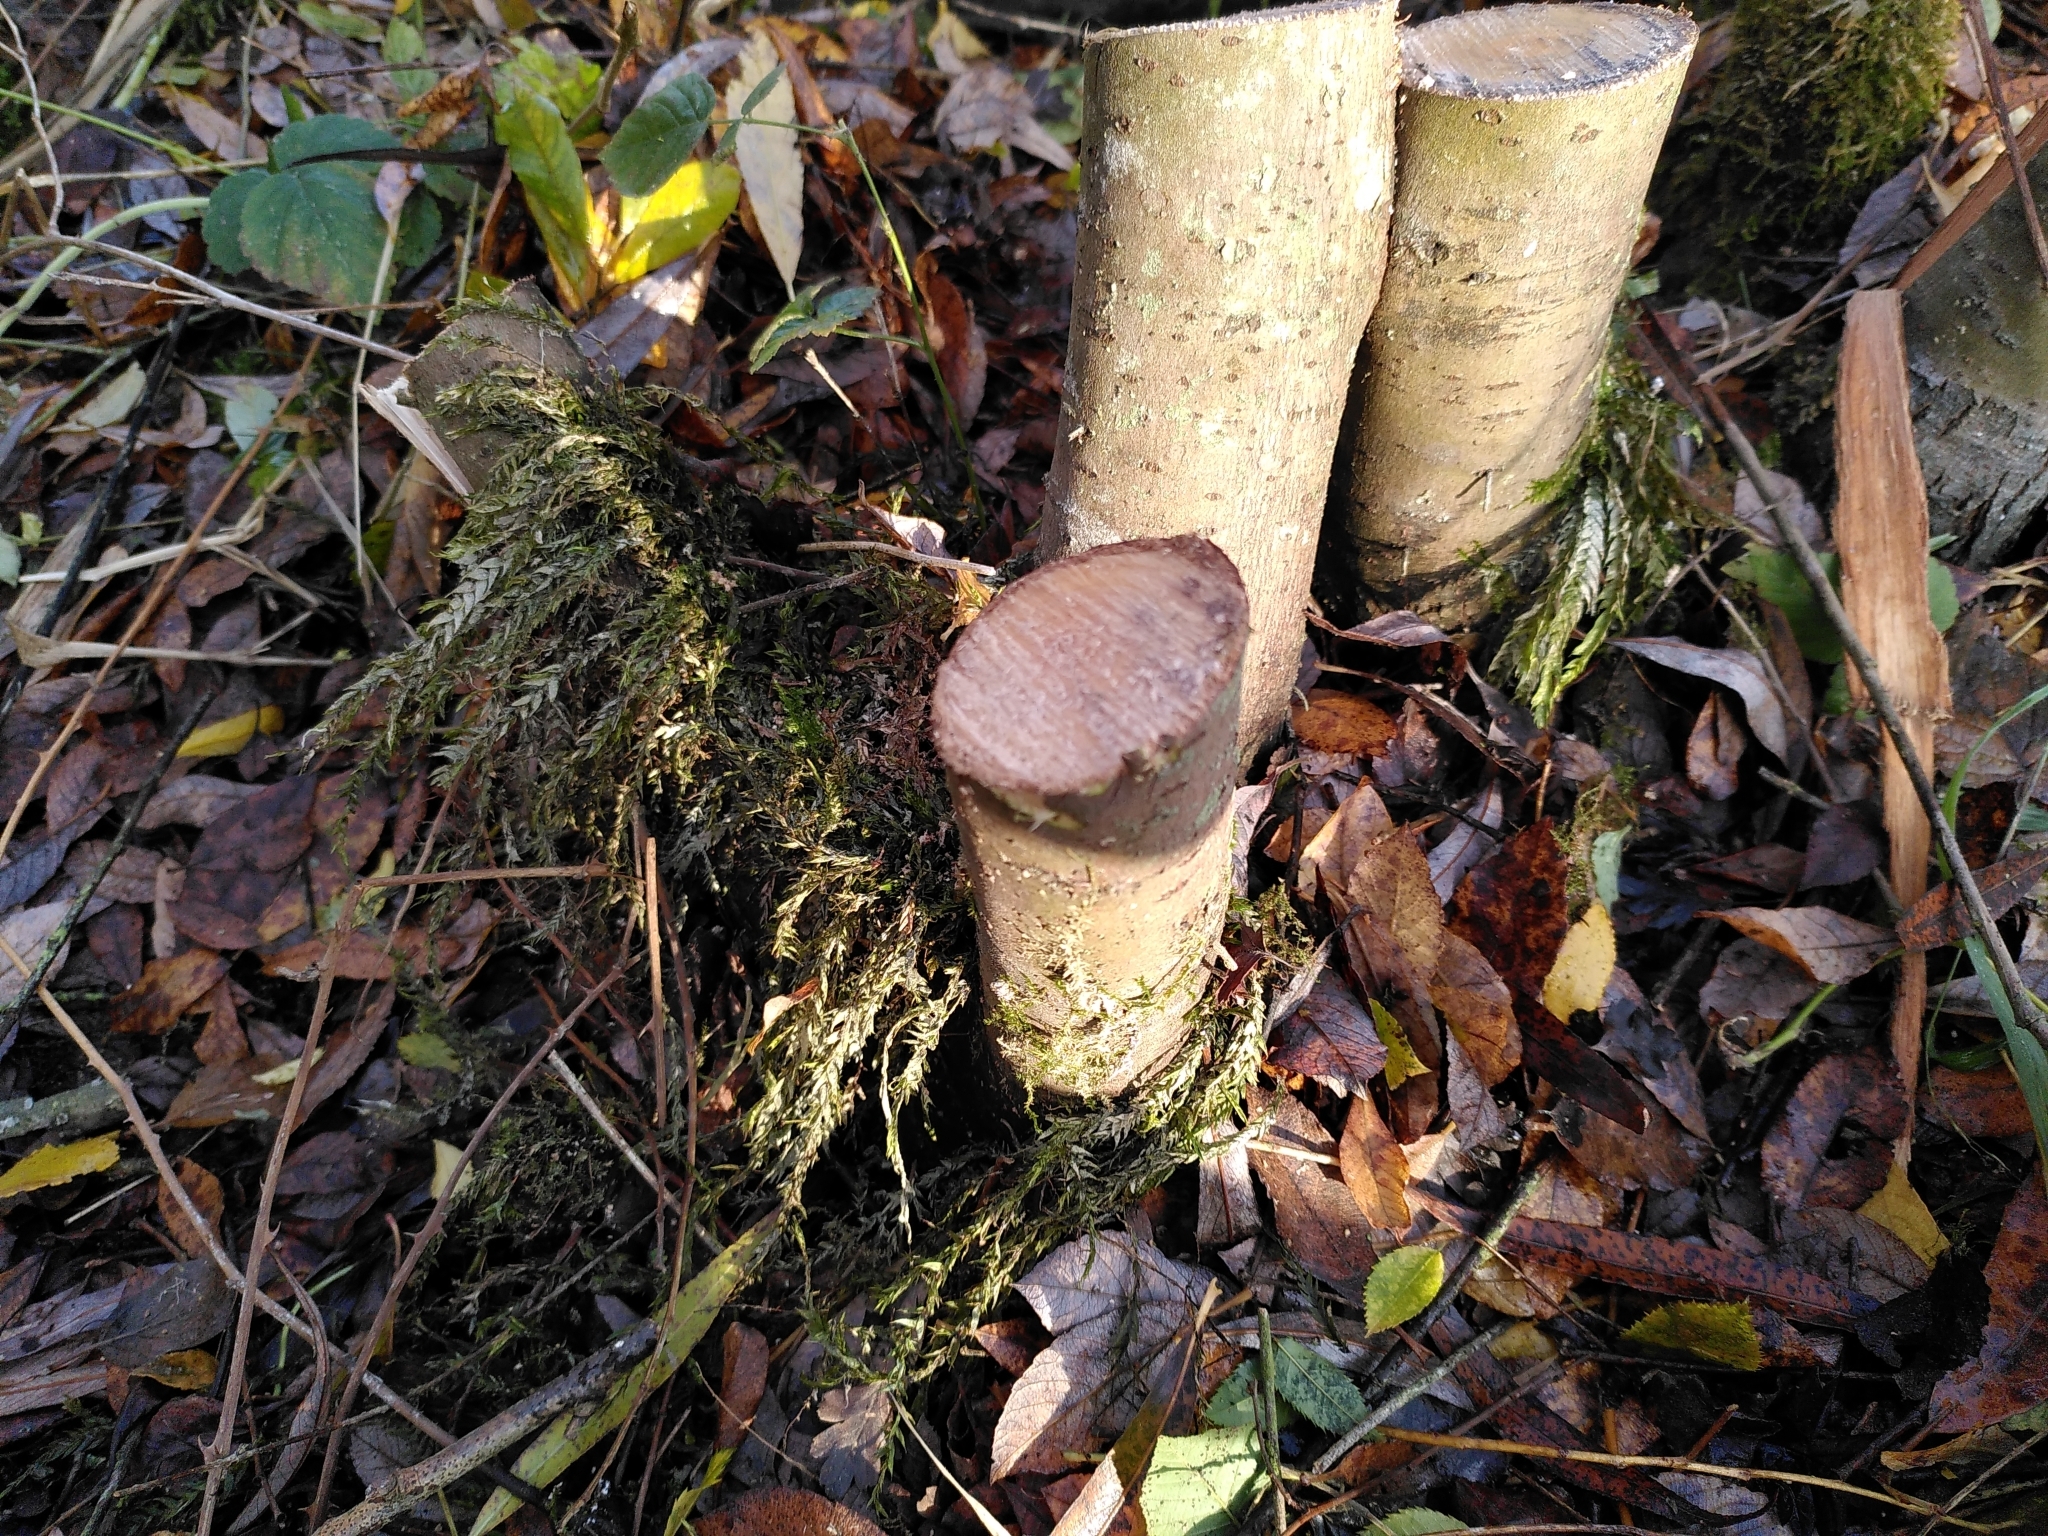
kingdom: Plantae
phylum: Bryophyta
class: Bryopsida
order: Hypnales
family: Fontinalaceae
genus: Fontinalis
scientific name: Fontinalis antipyretica
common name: Greater water-moss
